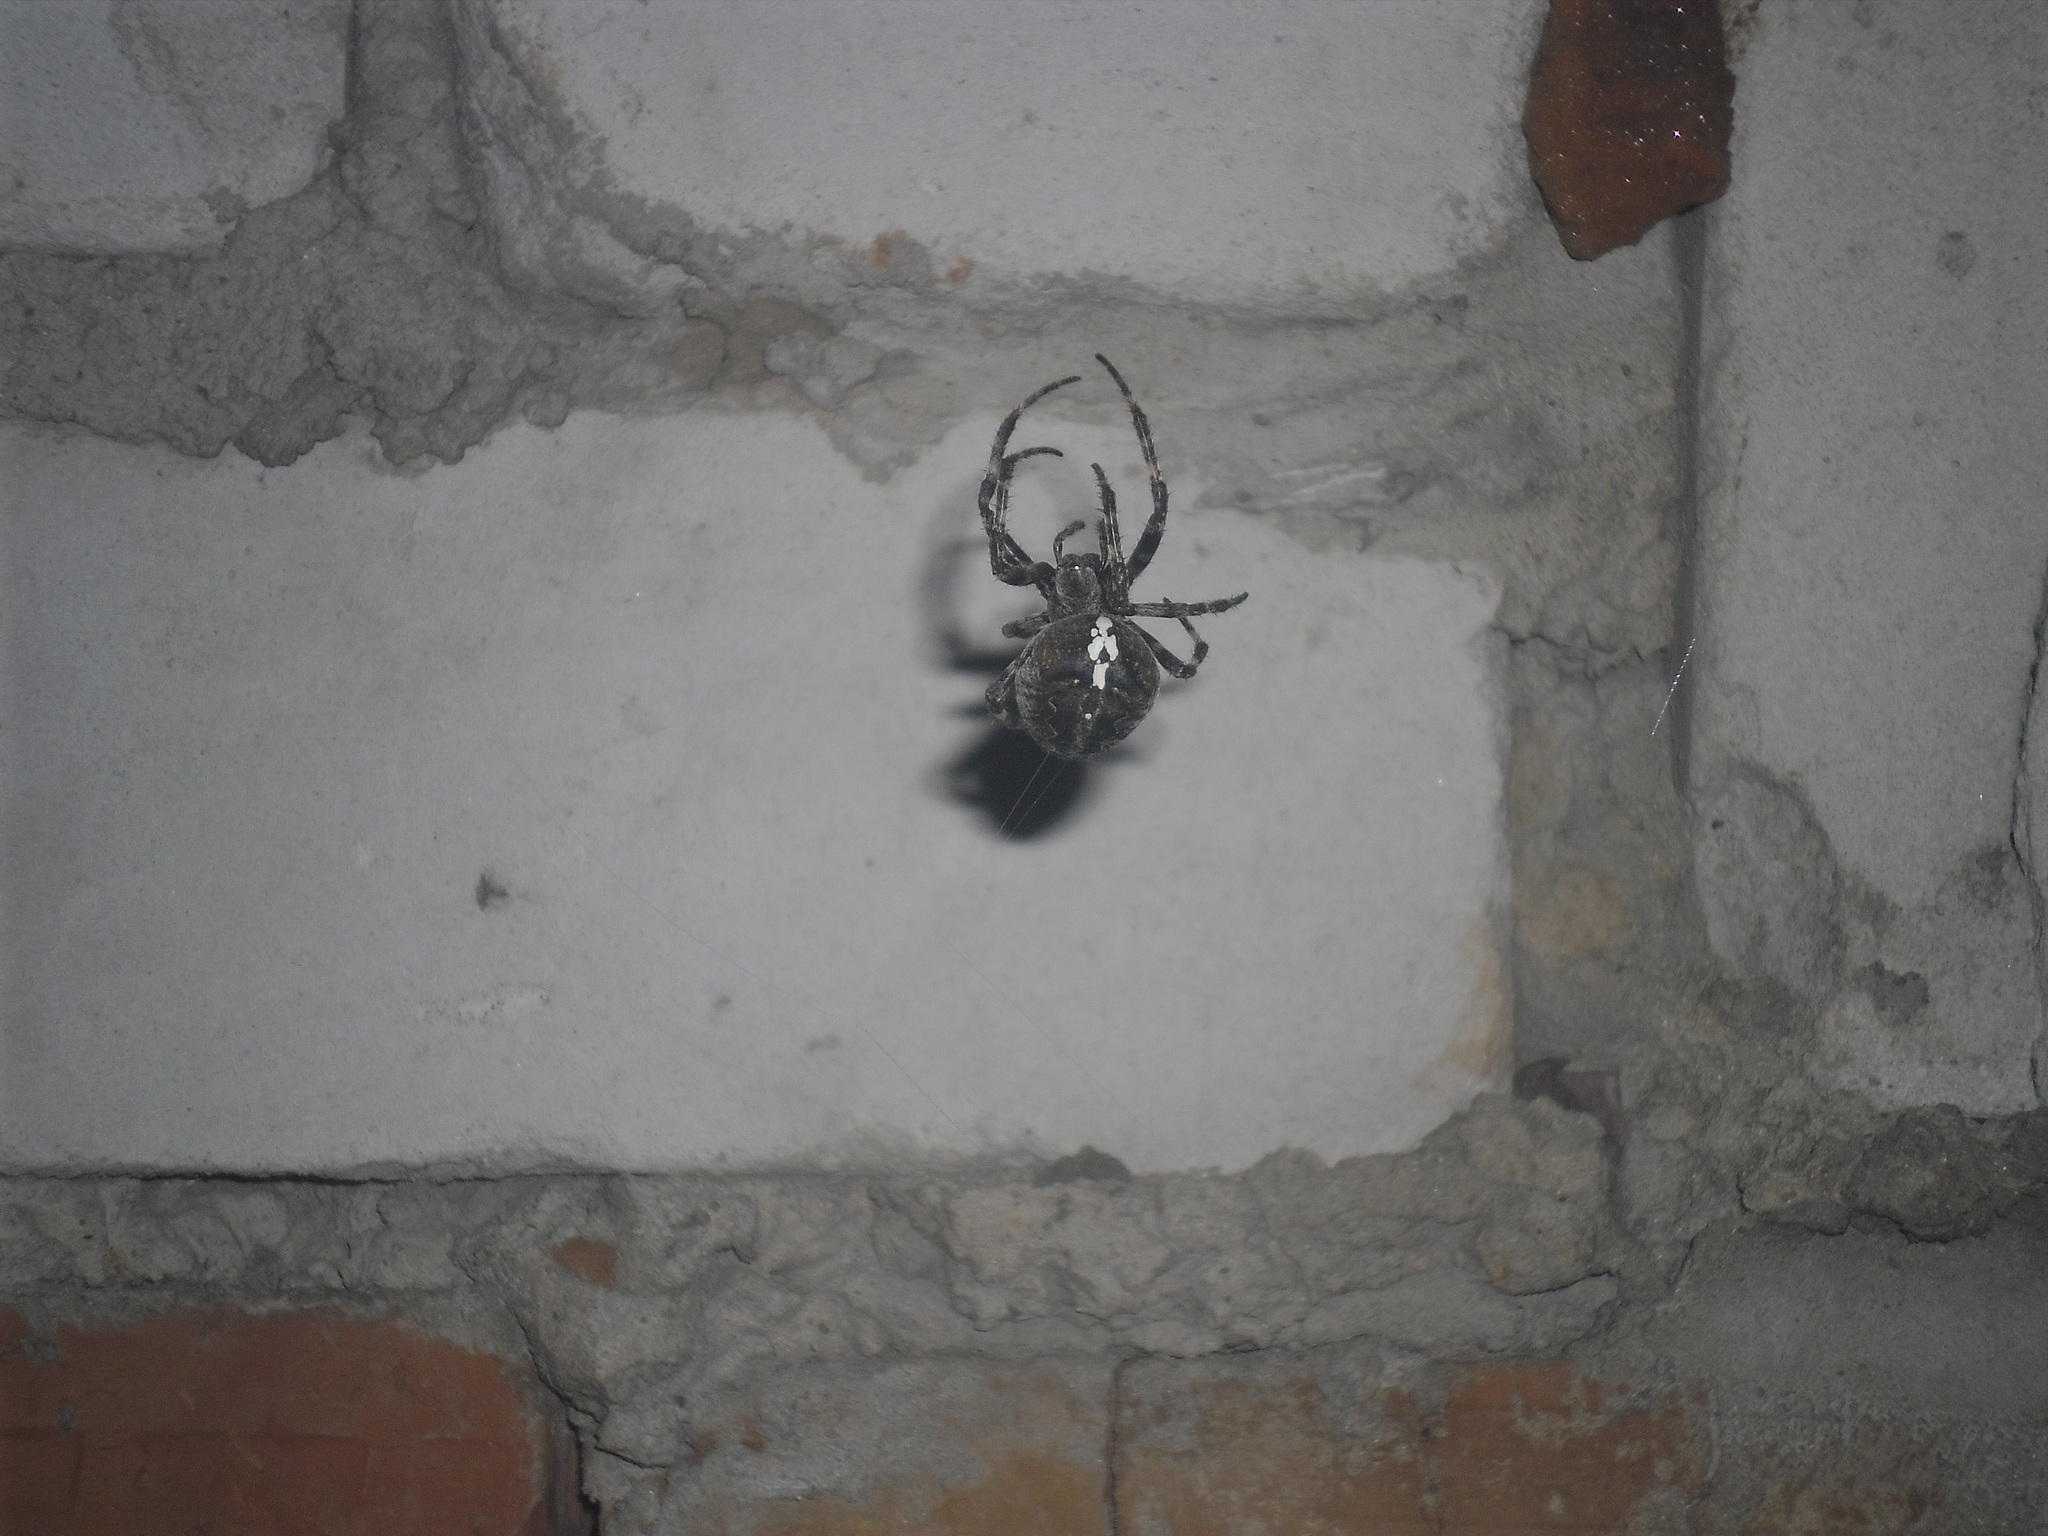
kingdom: Animalia
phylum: Arthropoda
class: Arachnida
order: Araneae
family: Araneidae
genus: Araneus
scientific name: Araneus angulatus
